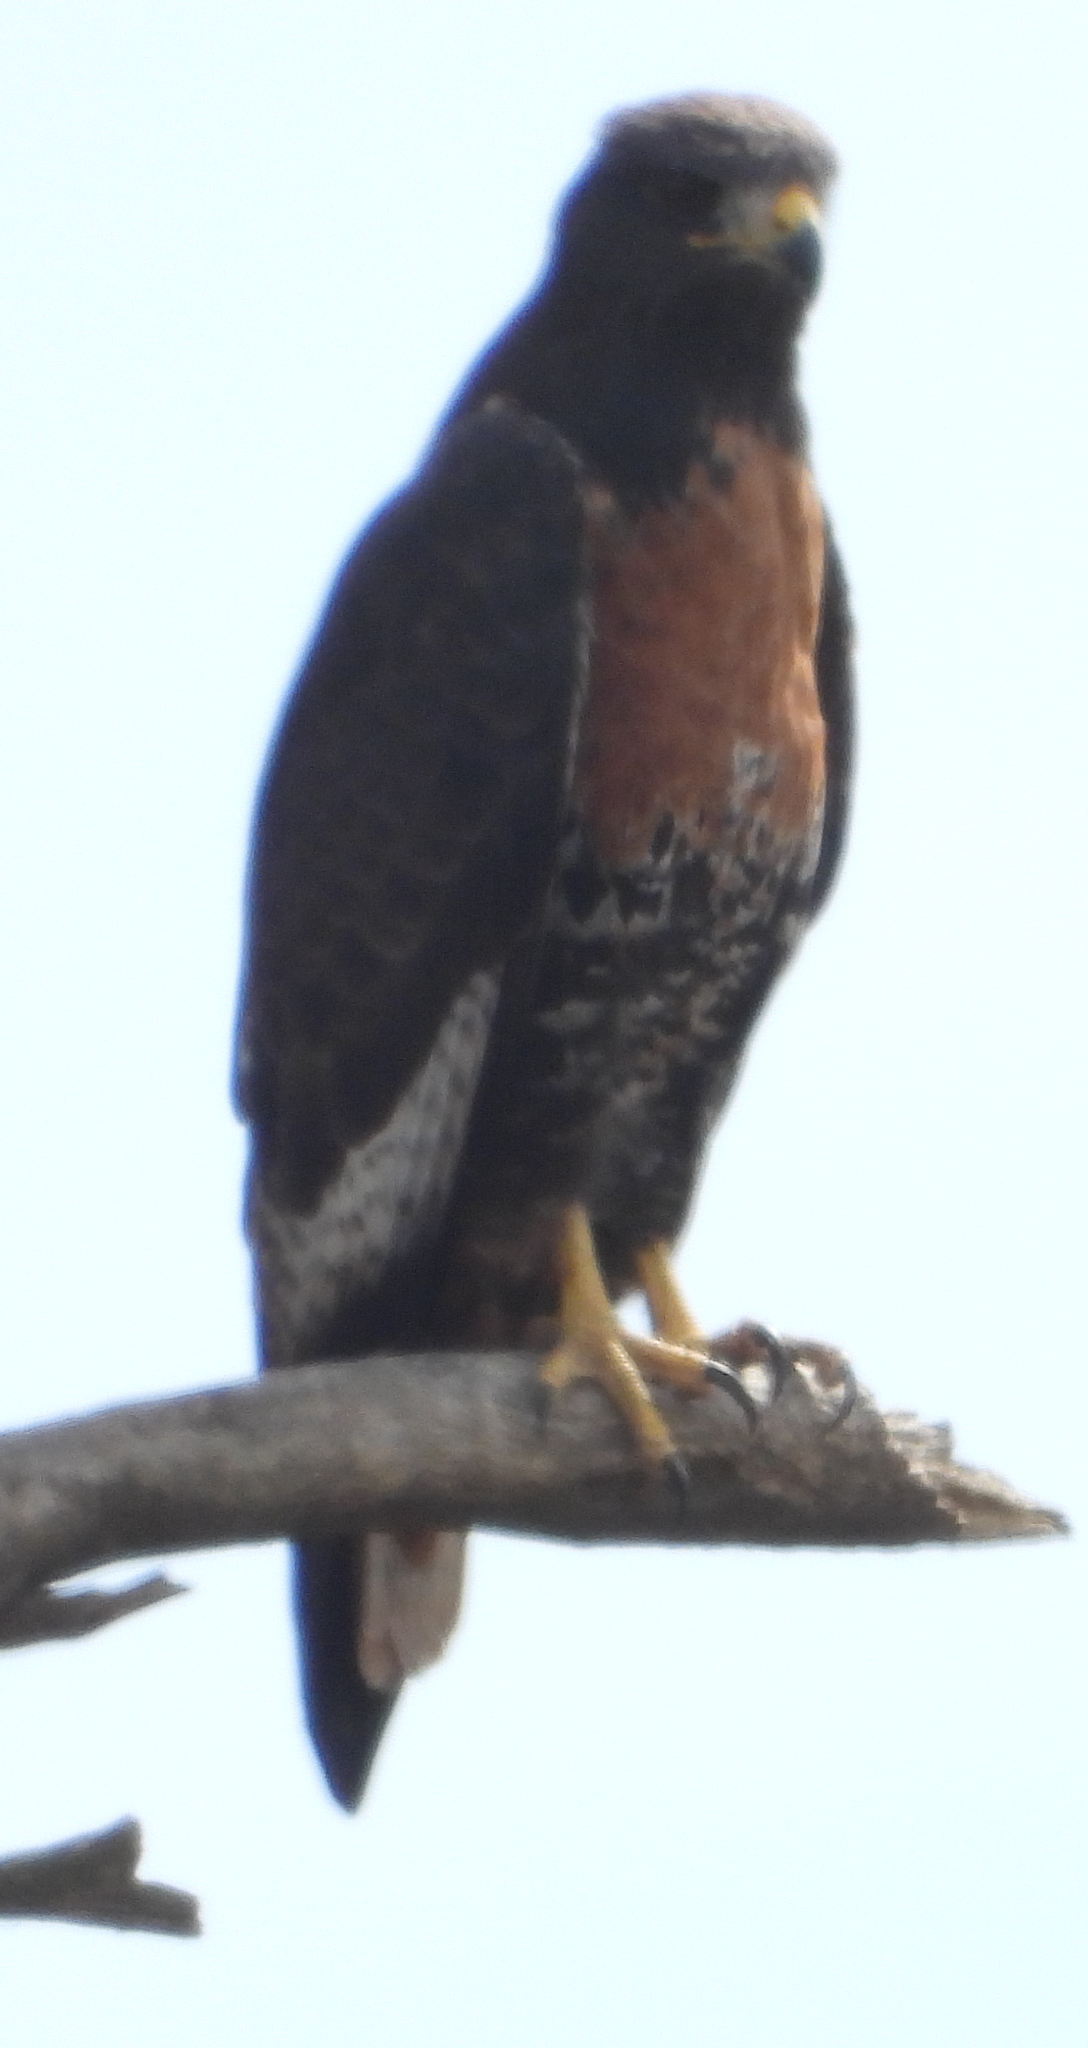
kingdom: Animalia
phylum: Chordata
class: Aves
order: Accipitriformes
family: Accipitridae
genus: Buteo
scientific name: Buteo rufofuscus
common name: Jackal buzzard
